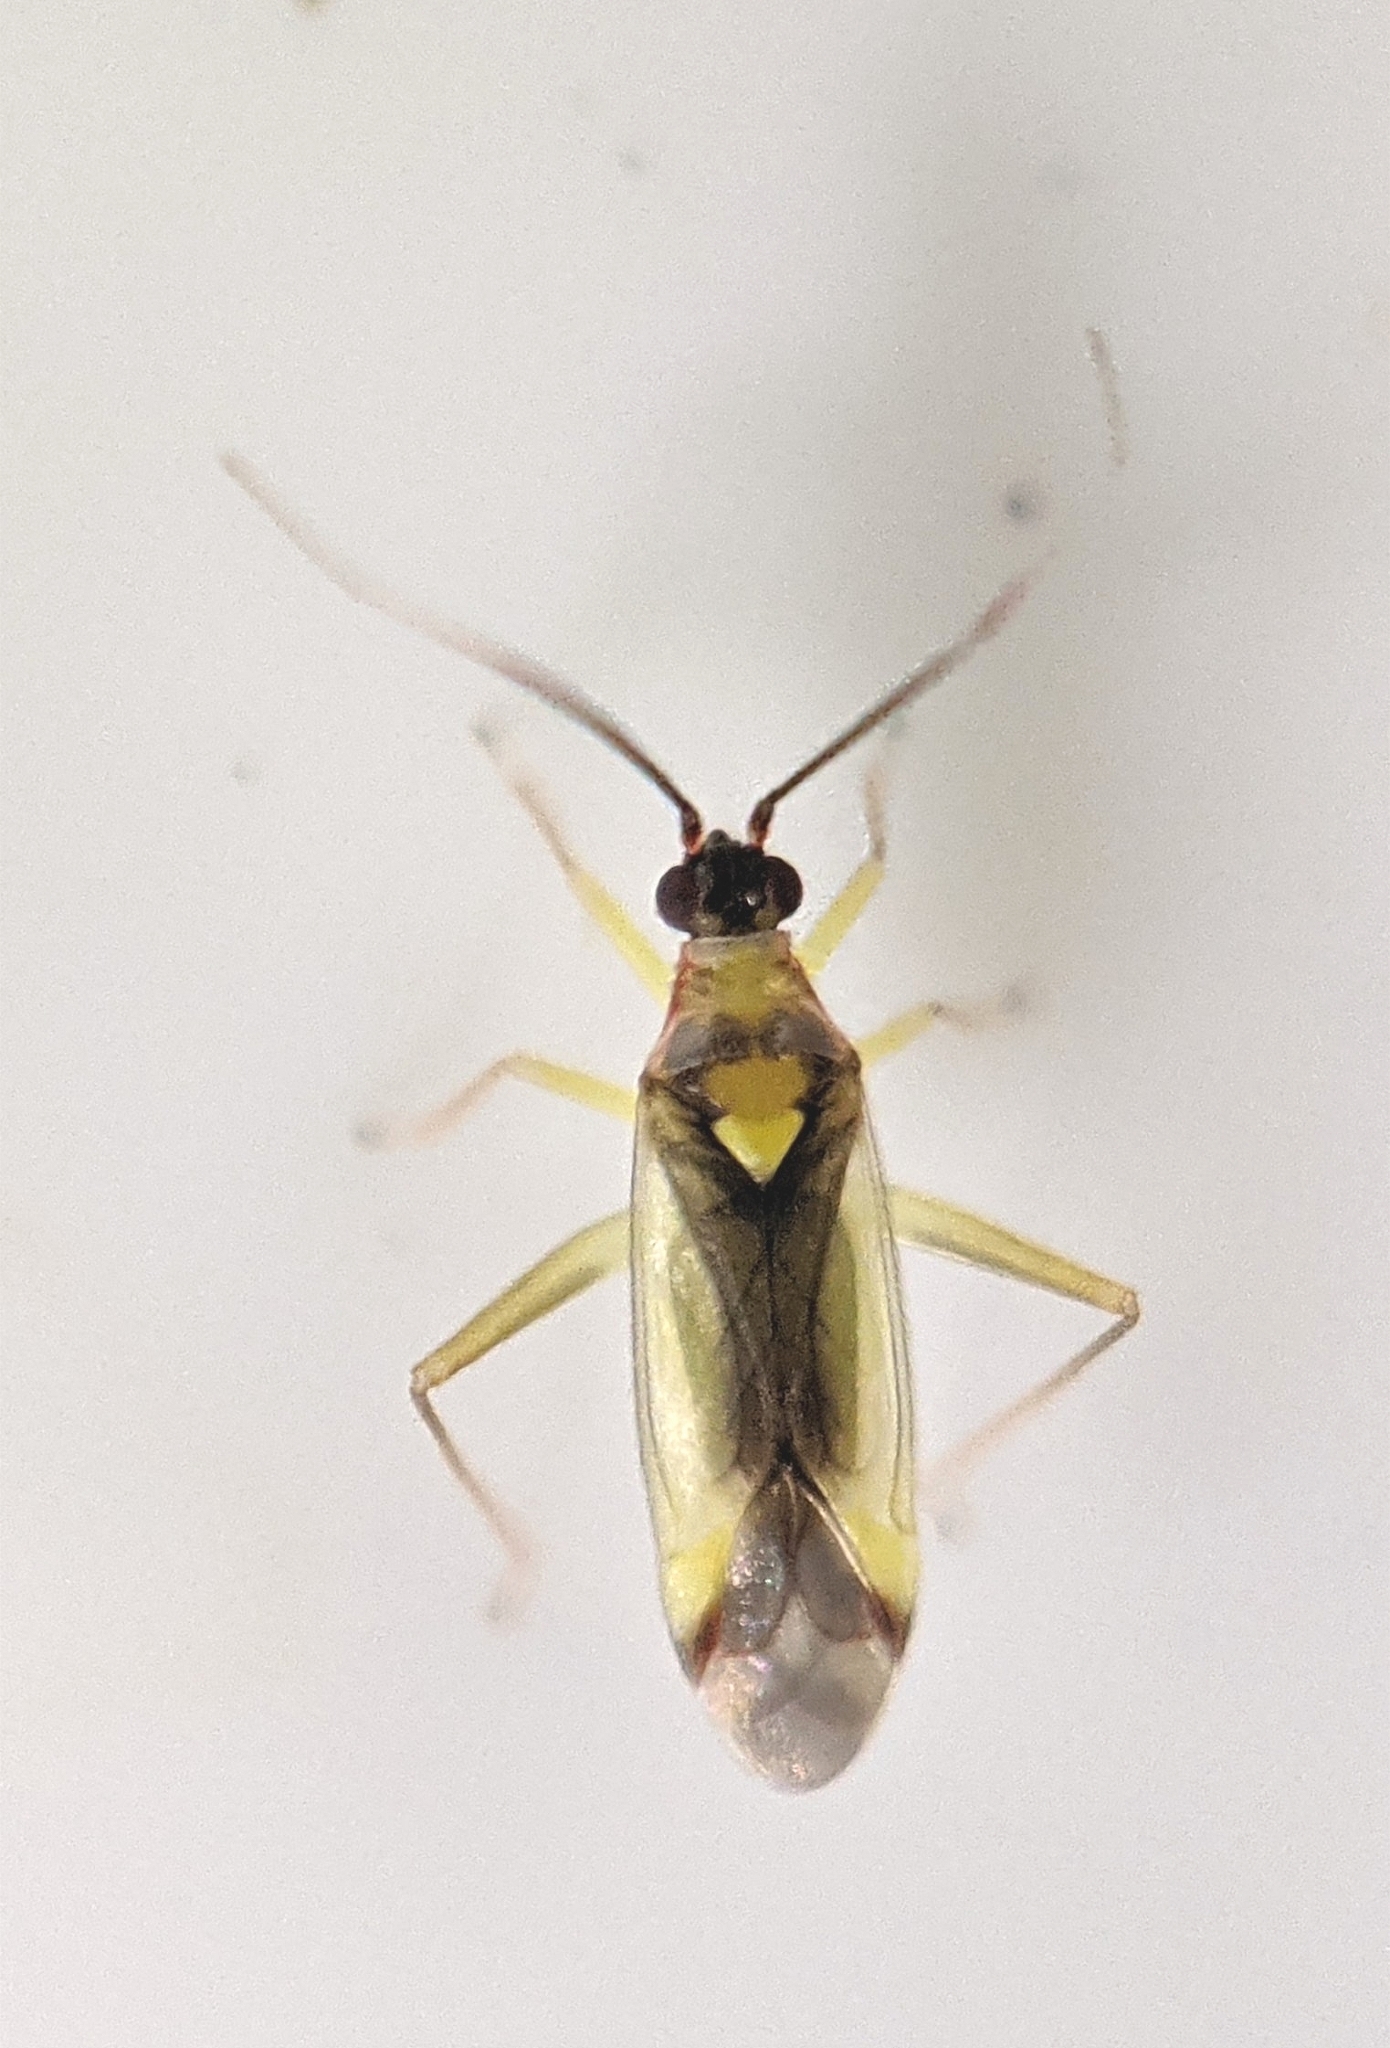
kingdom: Animalia
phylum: Arthropoda
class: Insecta
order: Hemiptera
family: Miridae
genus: Campyloneura
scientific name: Campyloneura virgula
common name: Predatory bug
